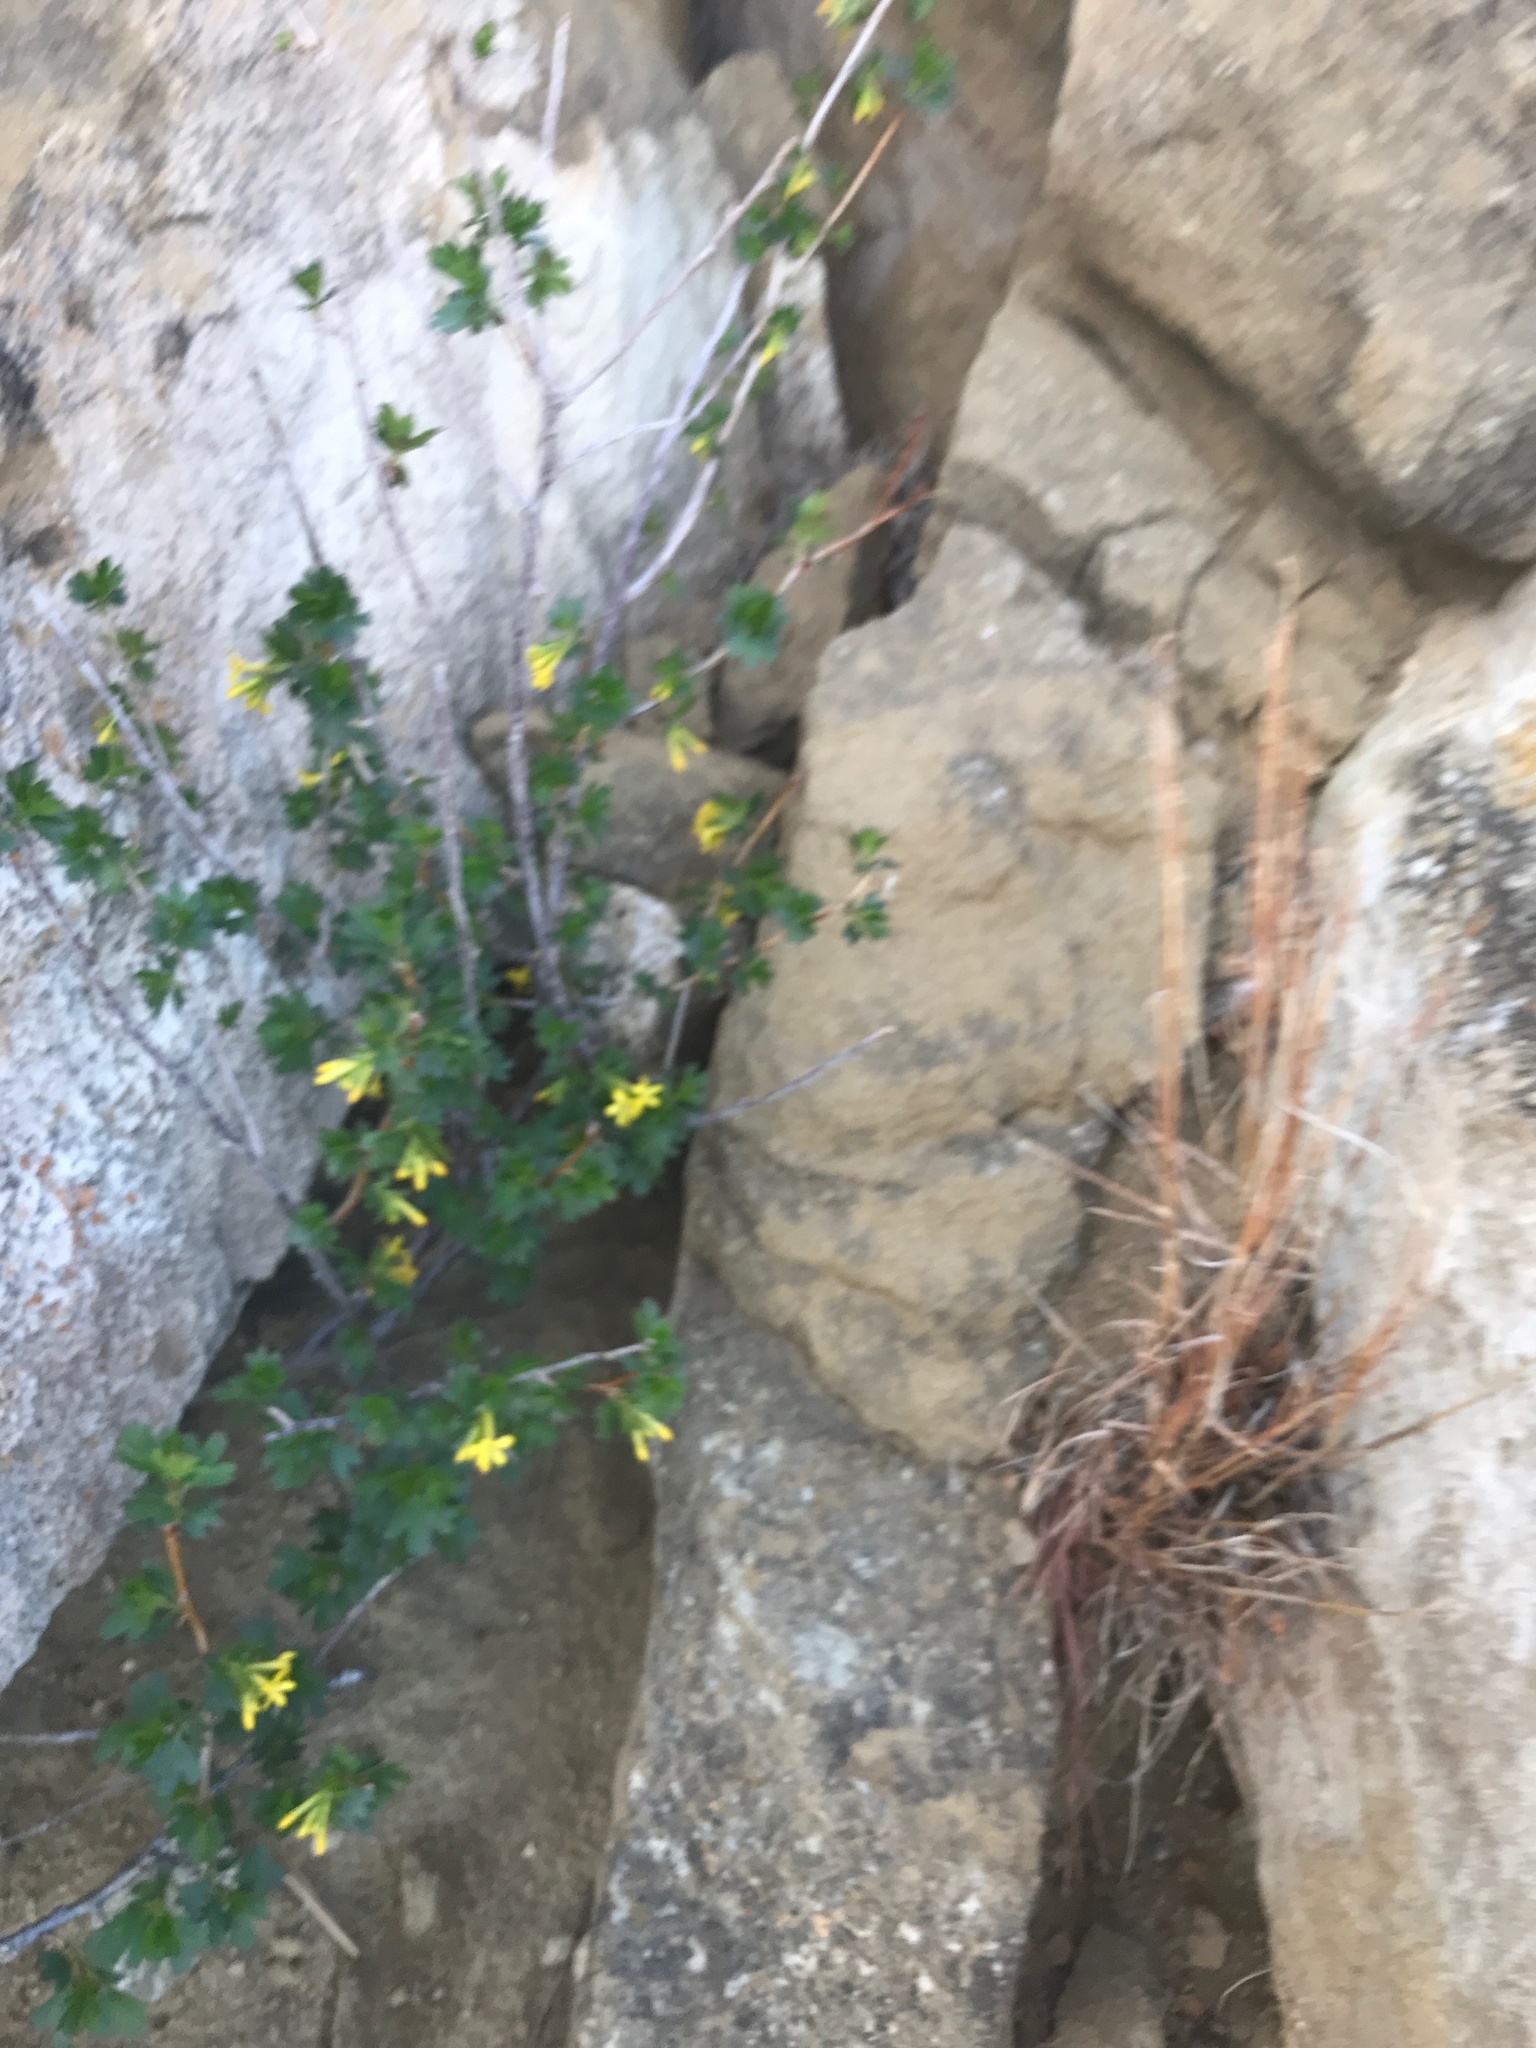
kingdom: Plantae
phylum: Tracheophyta
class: Magnoliopsida
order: Saxifragales
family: Grossulariaceae
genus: Ribes
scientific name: Ribes aureum
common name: Golden currant
